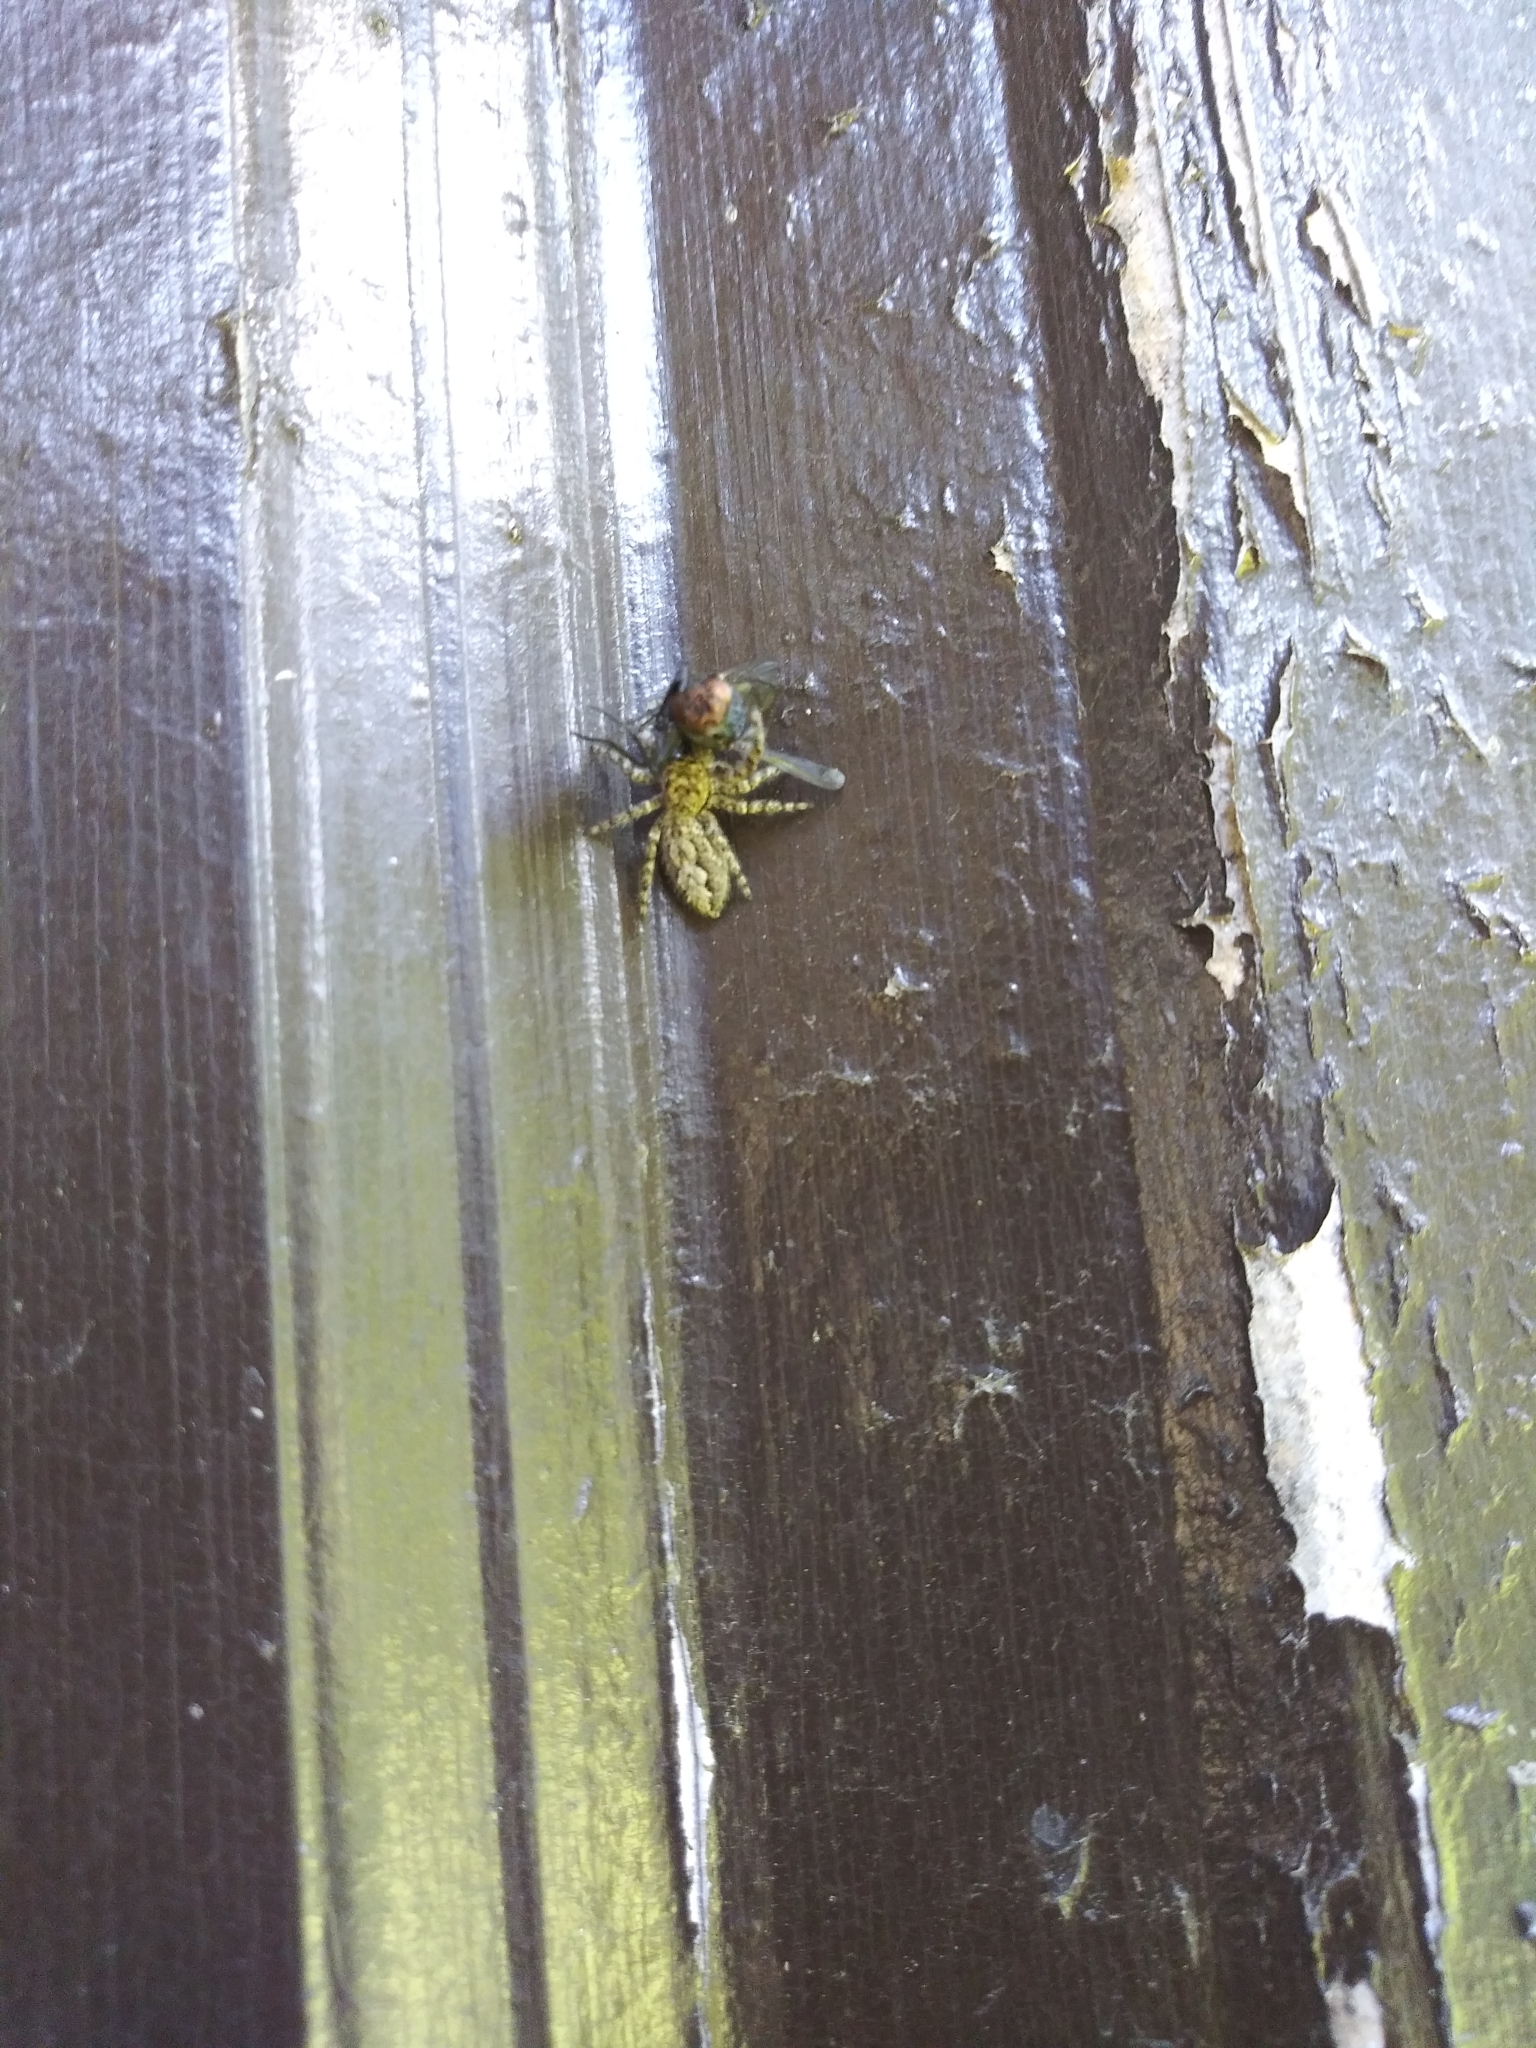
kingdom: Animalia
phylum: Arthropoda
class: Arachnida
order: Araneae
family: Salticidae
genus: Platycryptus
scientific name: Platycryptus undatus
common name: Tan jumping spider
